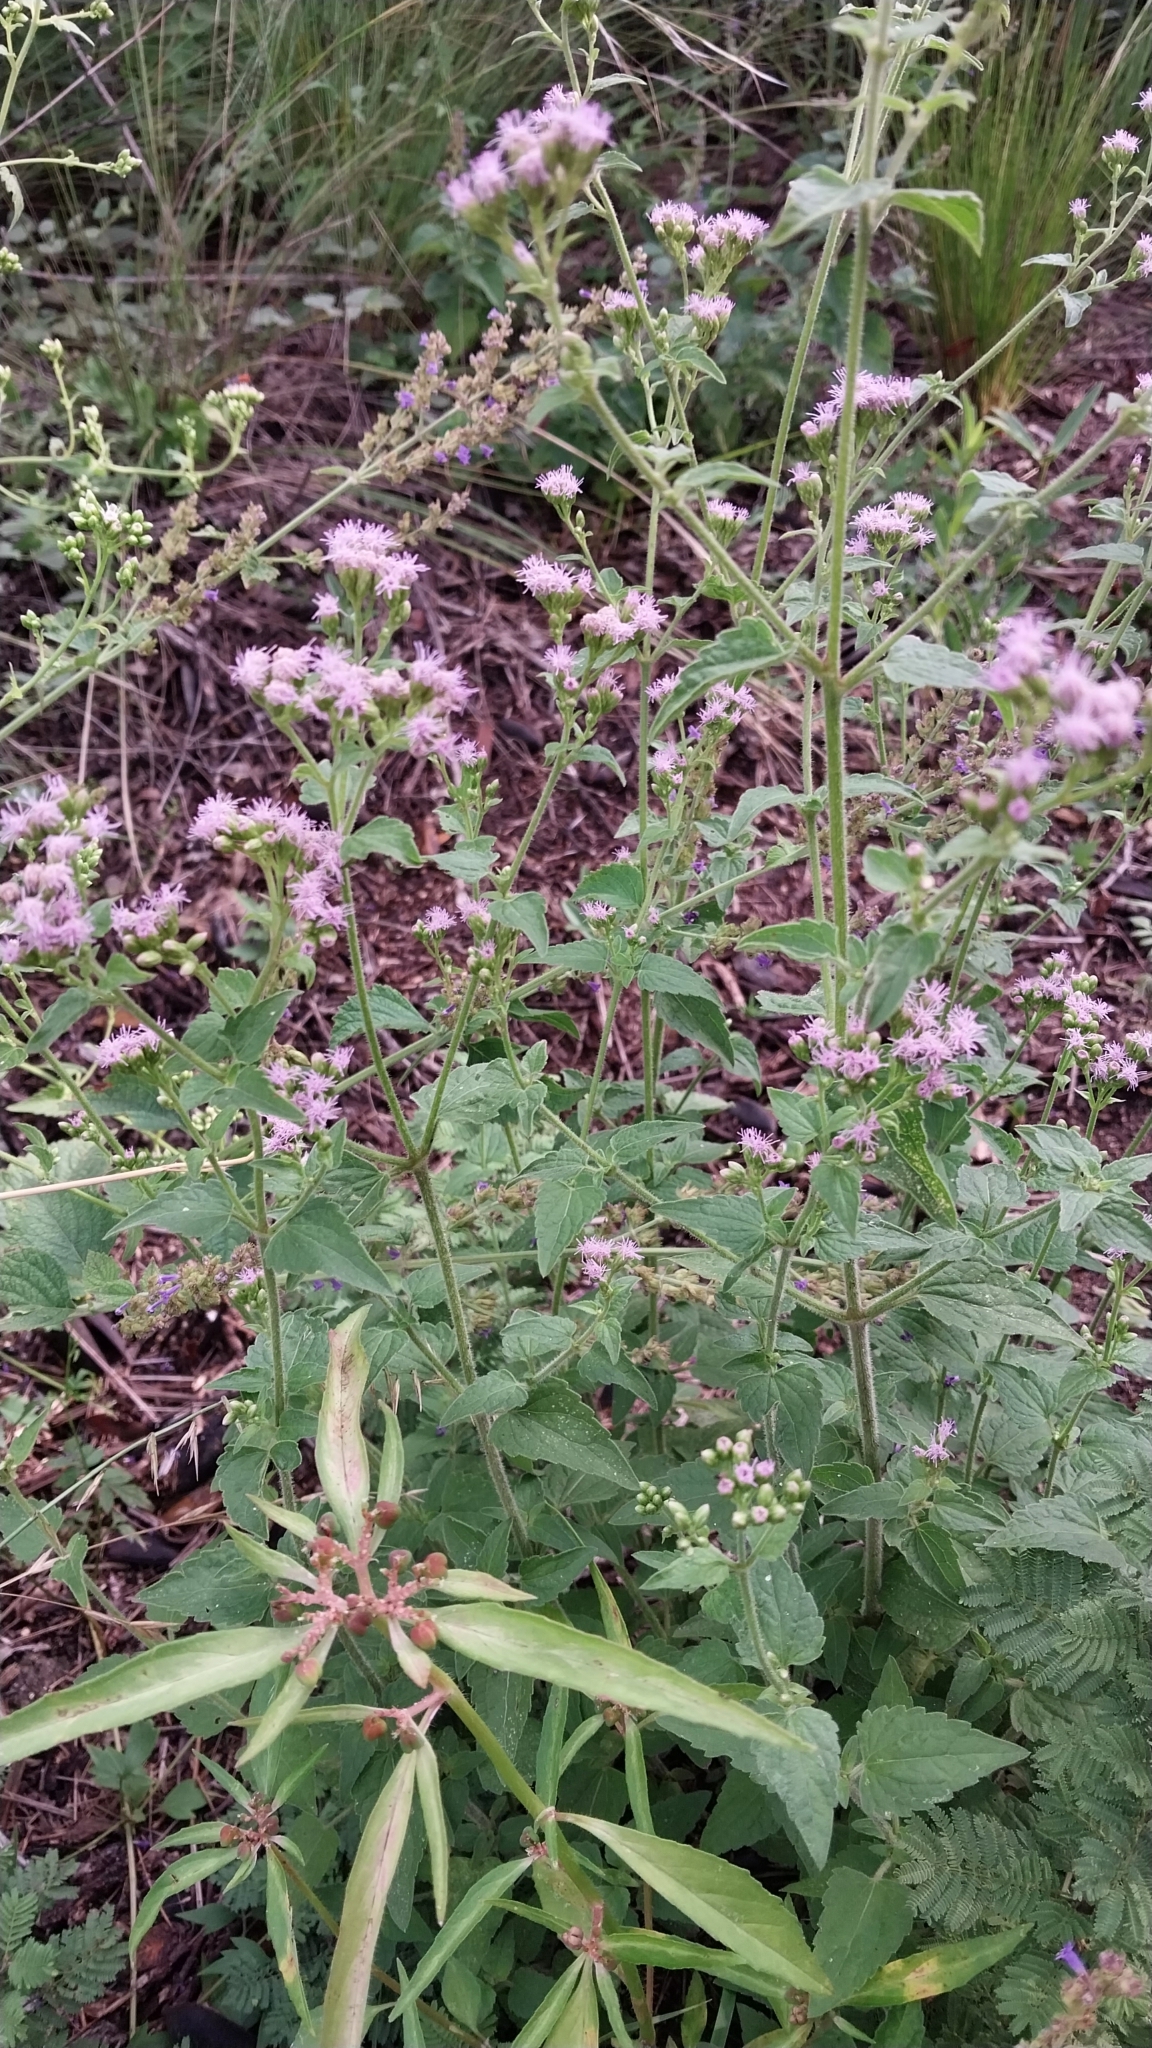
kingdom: Plantae
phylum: Tracheophyta
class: Magnoliopsida
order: Asterales
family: Asteraceae
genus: Fleischmannia
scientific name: Fleischmannia prasiifolia
